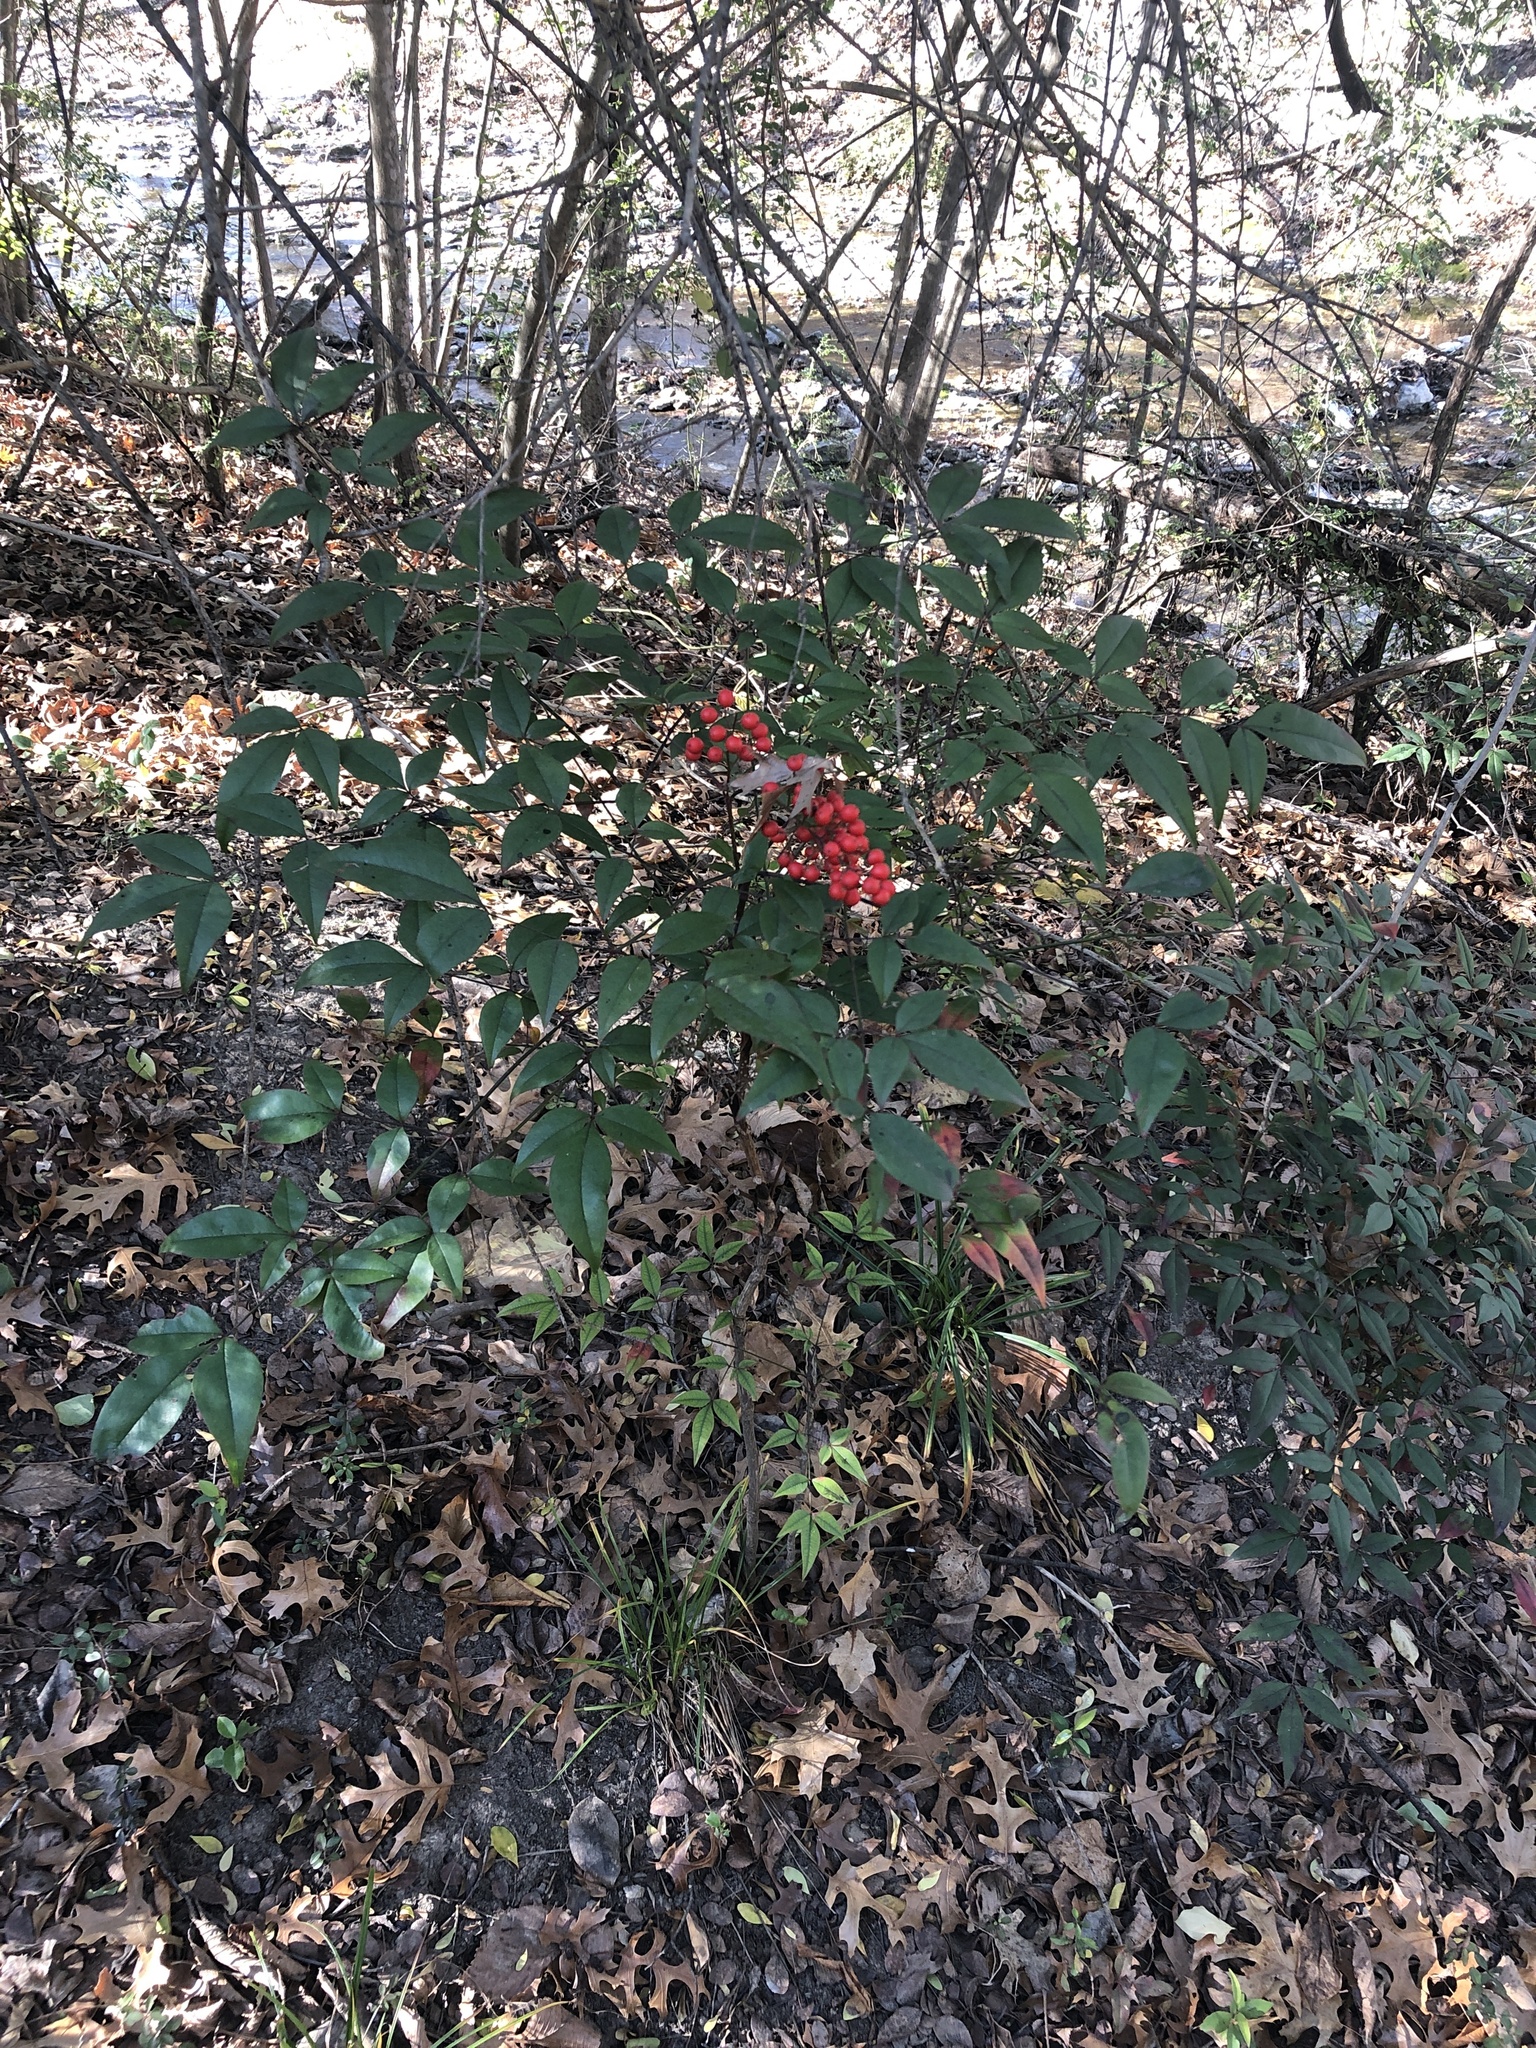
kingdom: Plantae
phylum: Tracheophyta
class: Magnoliopsida
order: Ranunculales
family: Berberidaceae
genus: Nandina
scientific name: Nandina domestica
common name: Sacred bamboo
